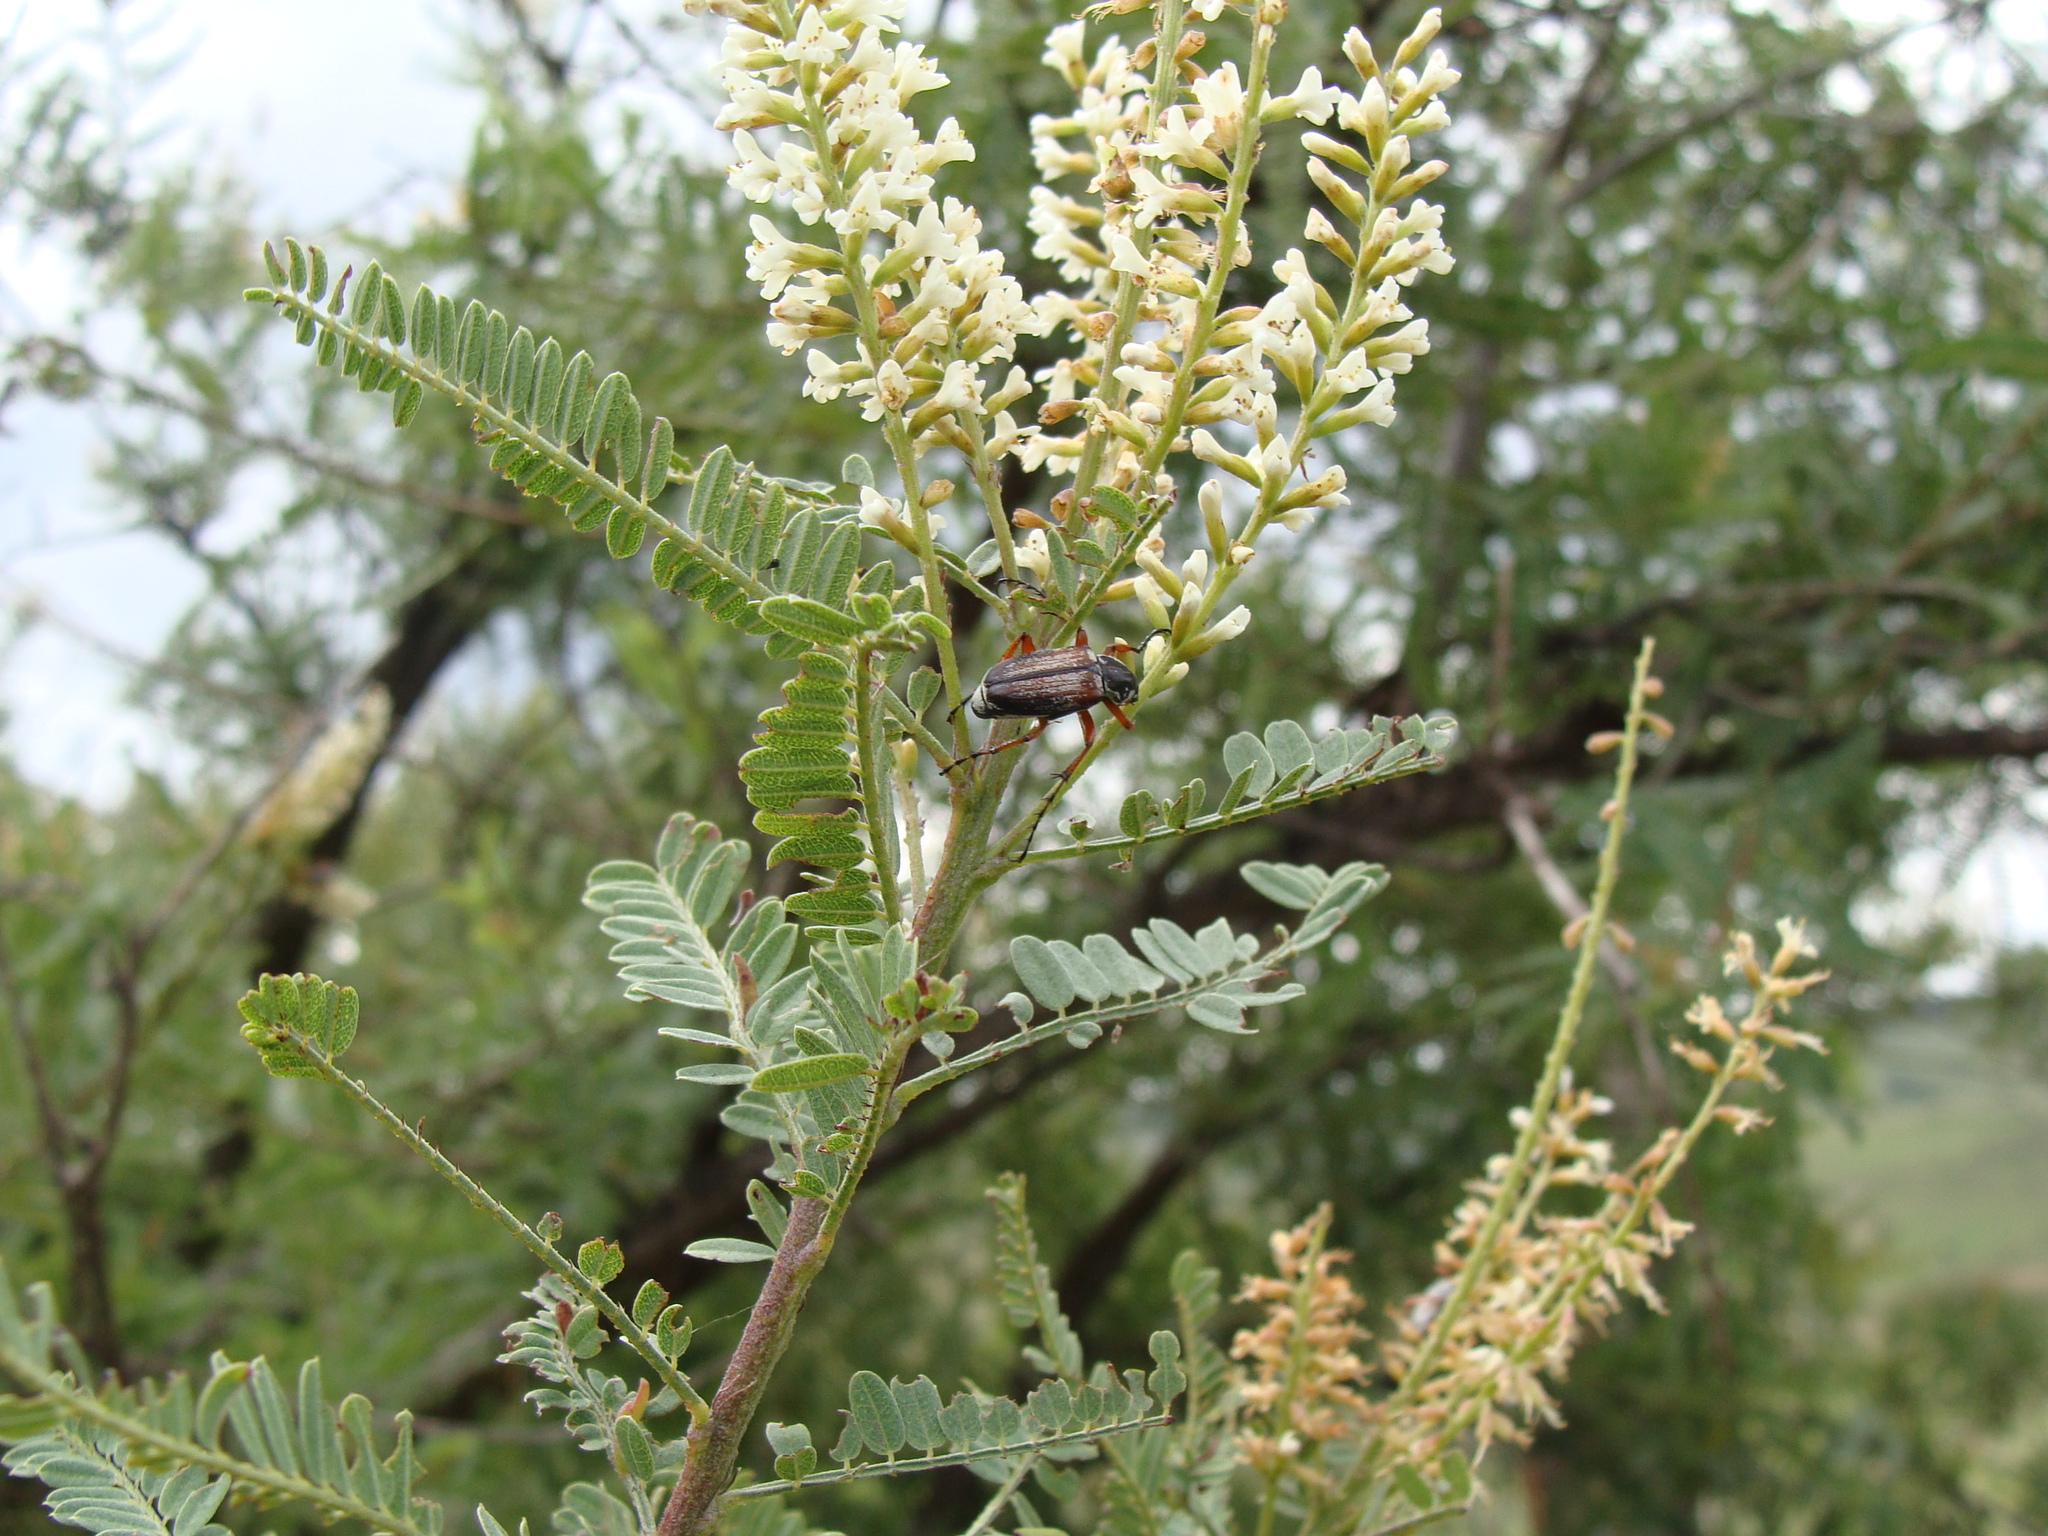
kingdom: Plantae
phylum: Tracheophyta
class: Magnoliopsida
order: Fabales
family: Fabaceae
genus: Eysenhardtia
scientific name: Eysenhardtia polystachya
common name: Kidneywood
